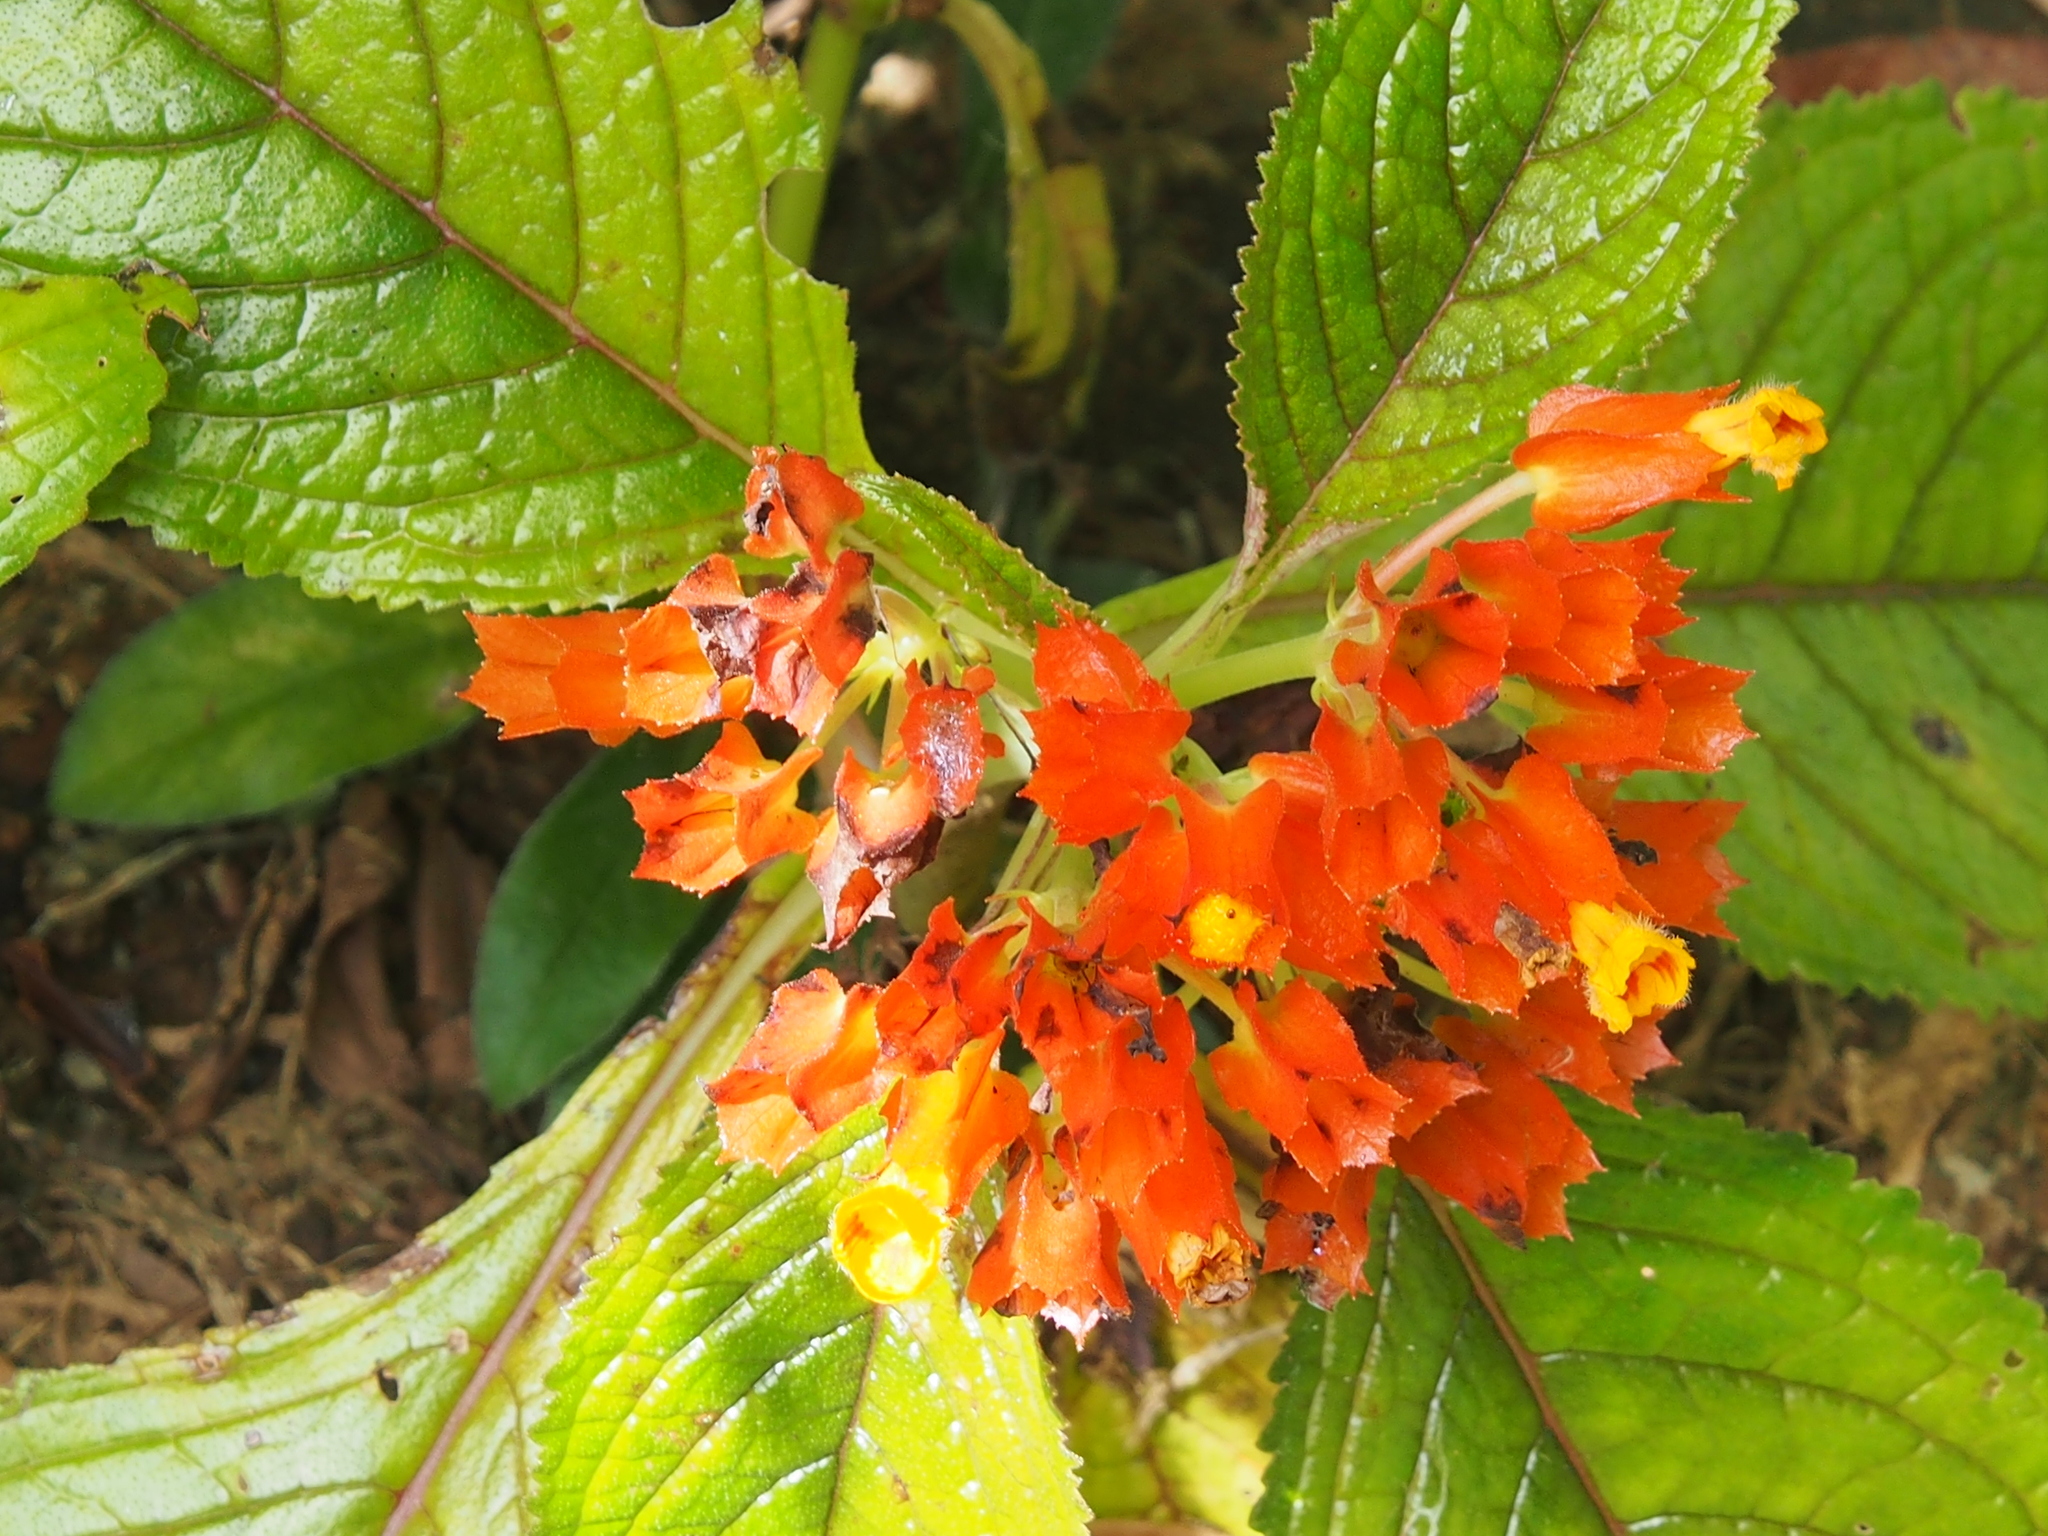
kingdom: Plantae
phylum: Tracheophyta
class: Magnoliopsida
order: Lamiales
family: Gesneriaceae
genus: Chrysothemis
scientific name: Chrysothemis pulchella
